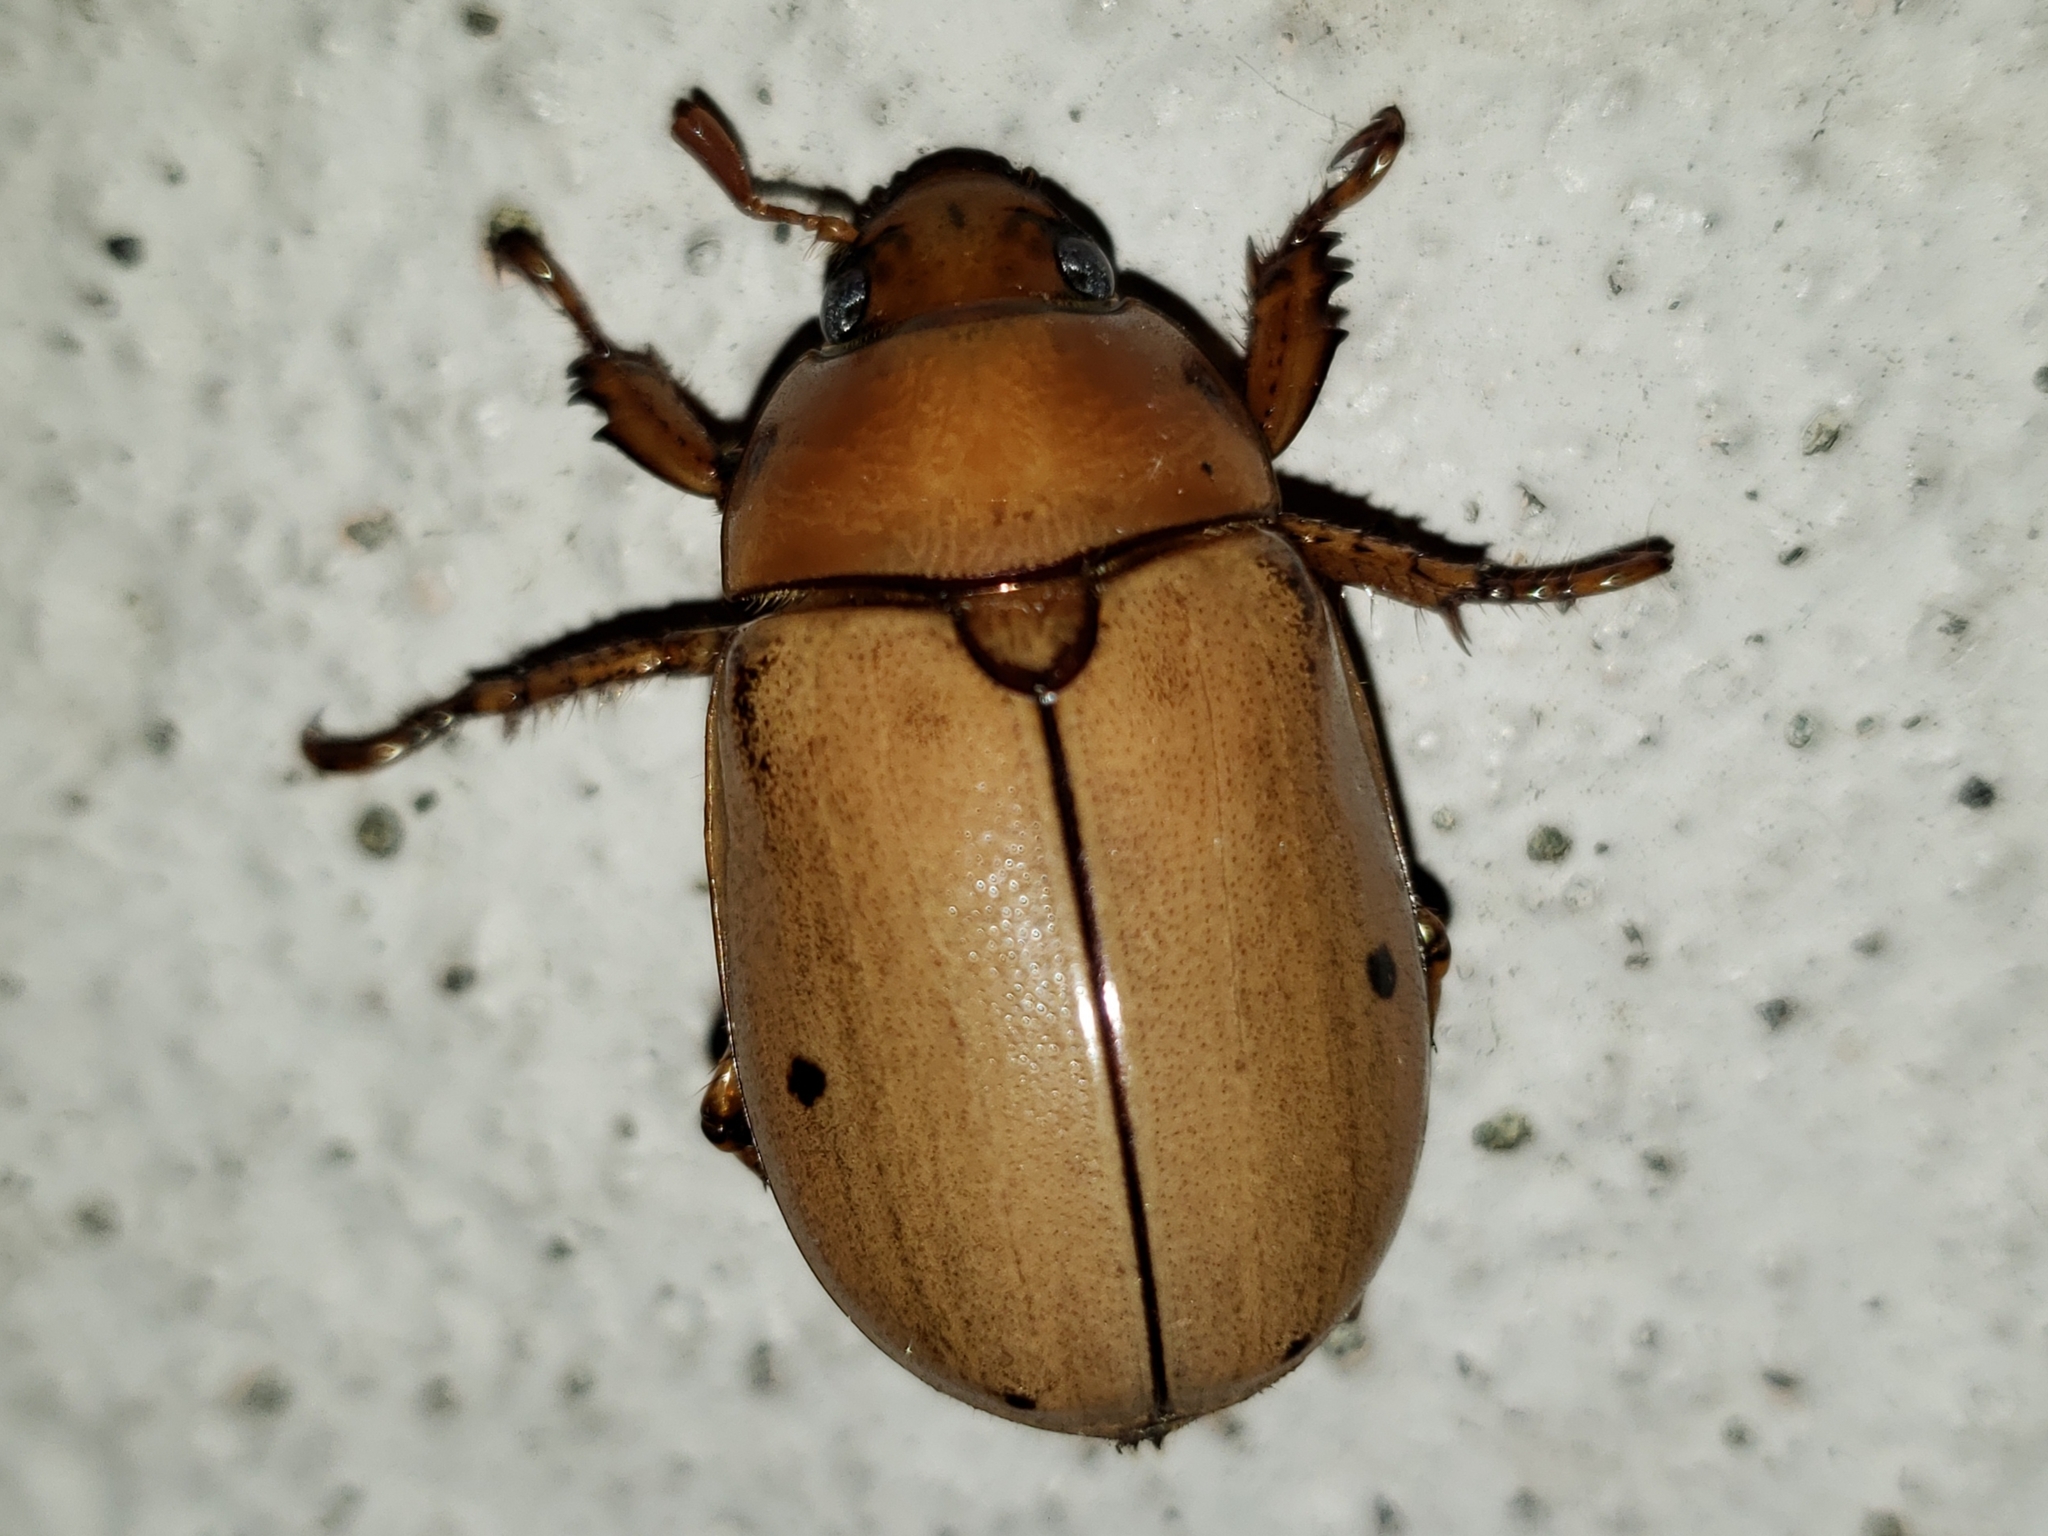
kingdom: Animalia
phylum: Arthropoda
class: Insecta
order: Coleoptera
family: Scarabaeidae
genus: Pelidnota
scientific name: Pelidnota punctata
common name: Grapevine beetle
